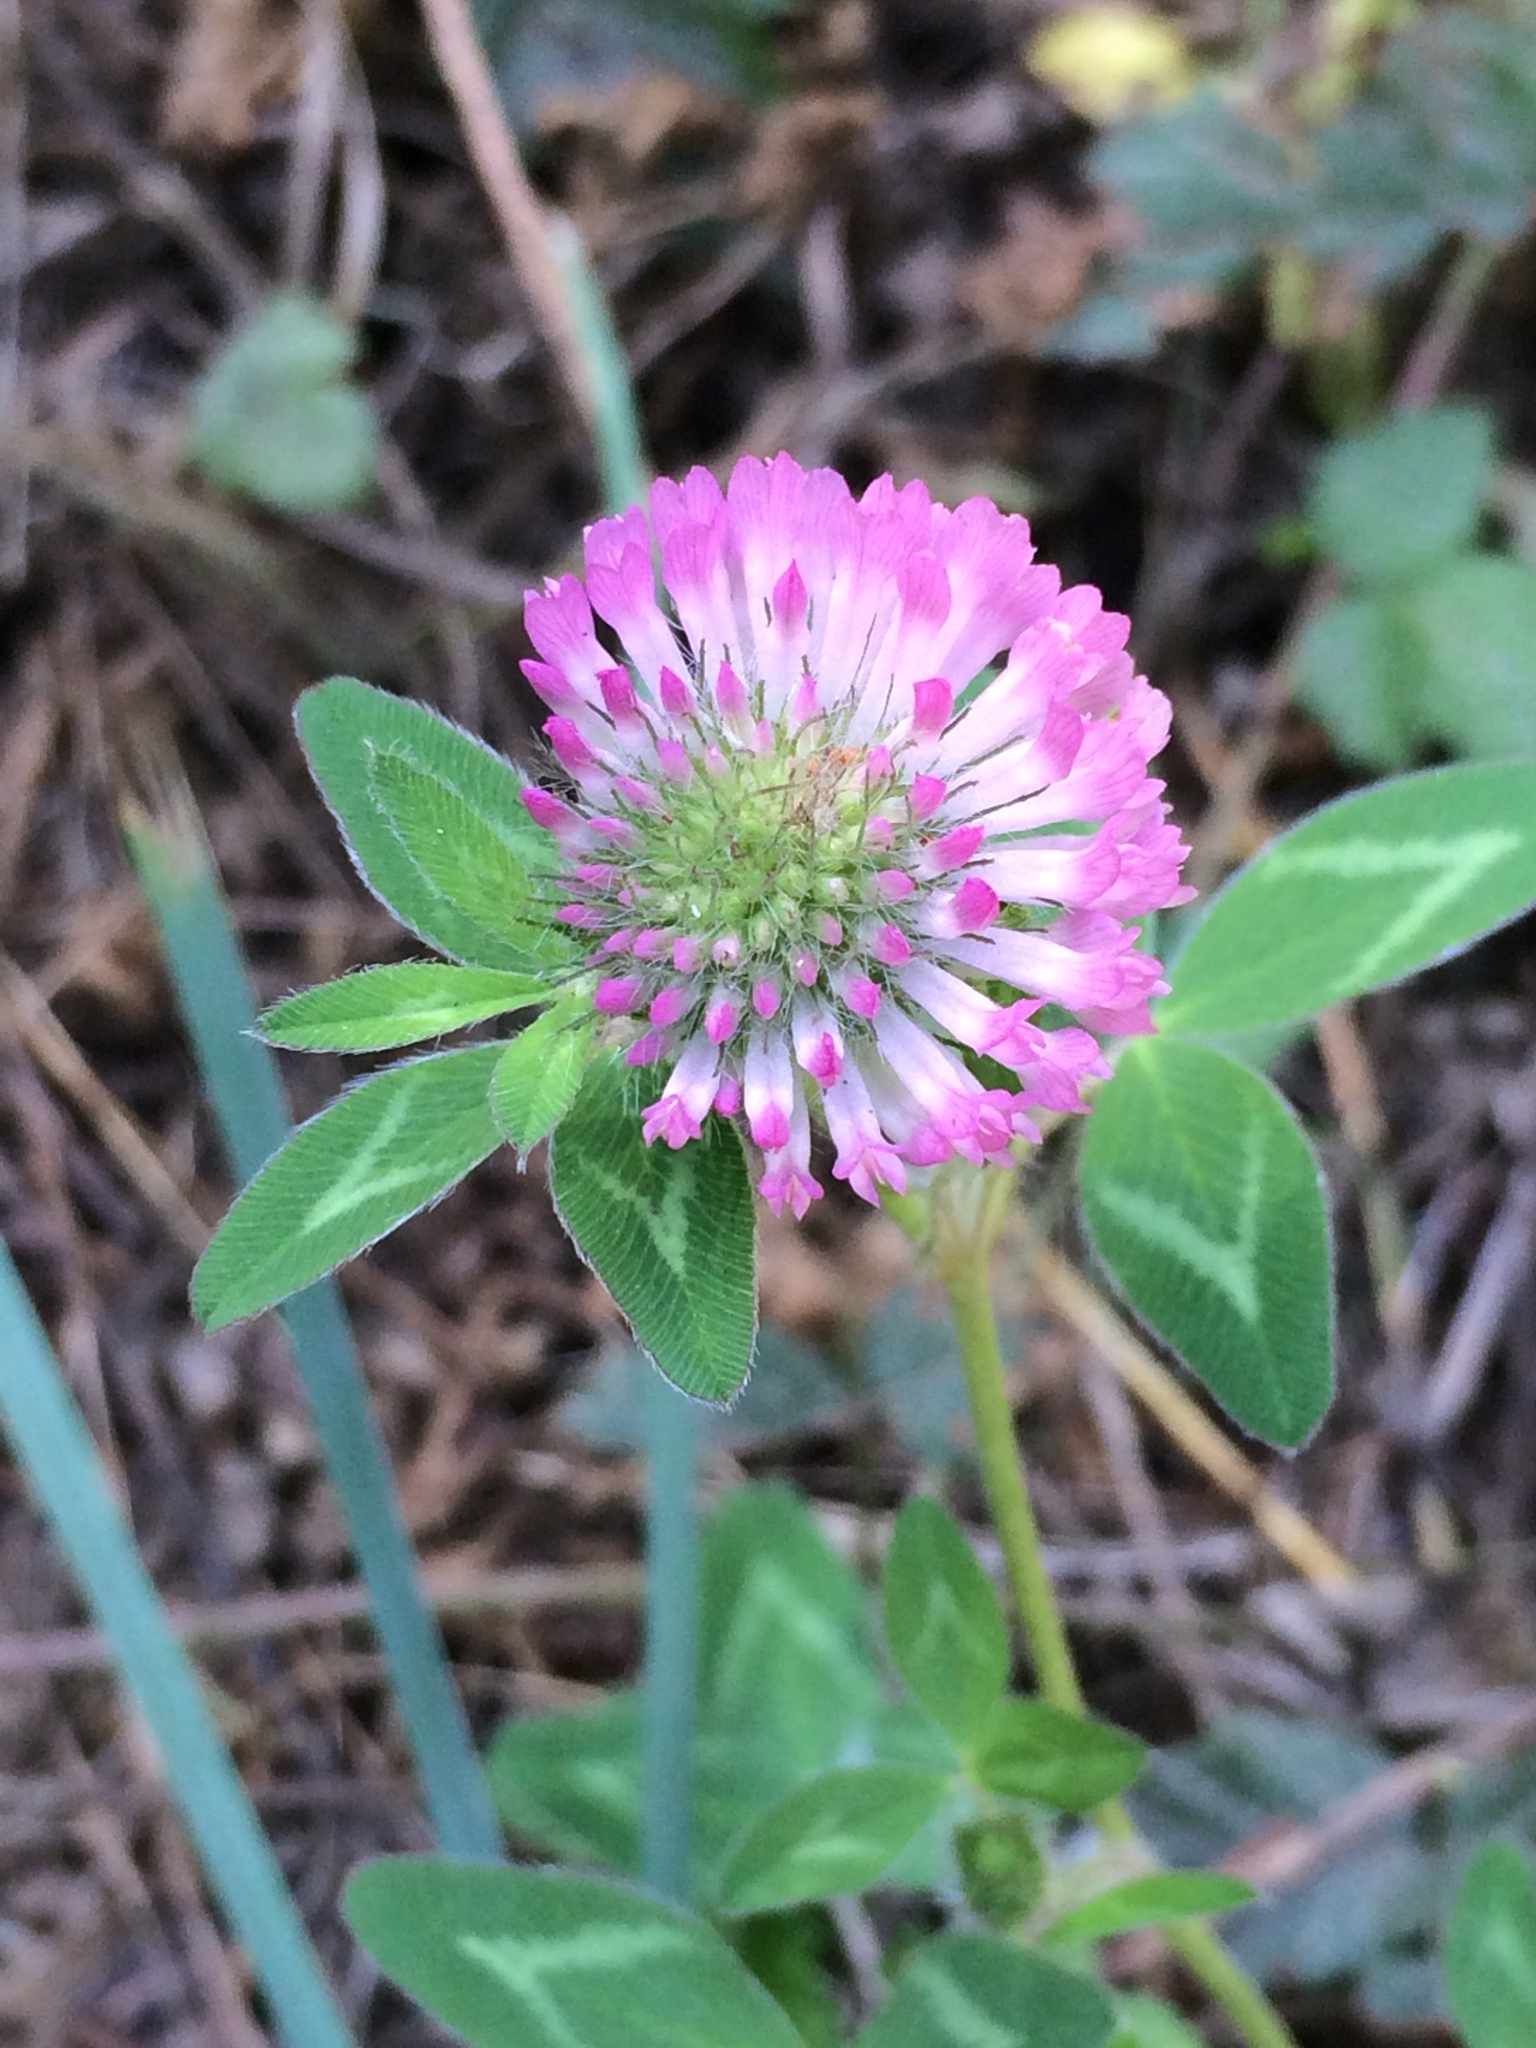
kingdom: Plantae
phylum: Tracheophyta
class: Magnoliopsida
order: Fabales
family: Fabaceae
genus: Trifolium
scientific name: Trifolium pratense
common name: Red clover
